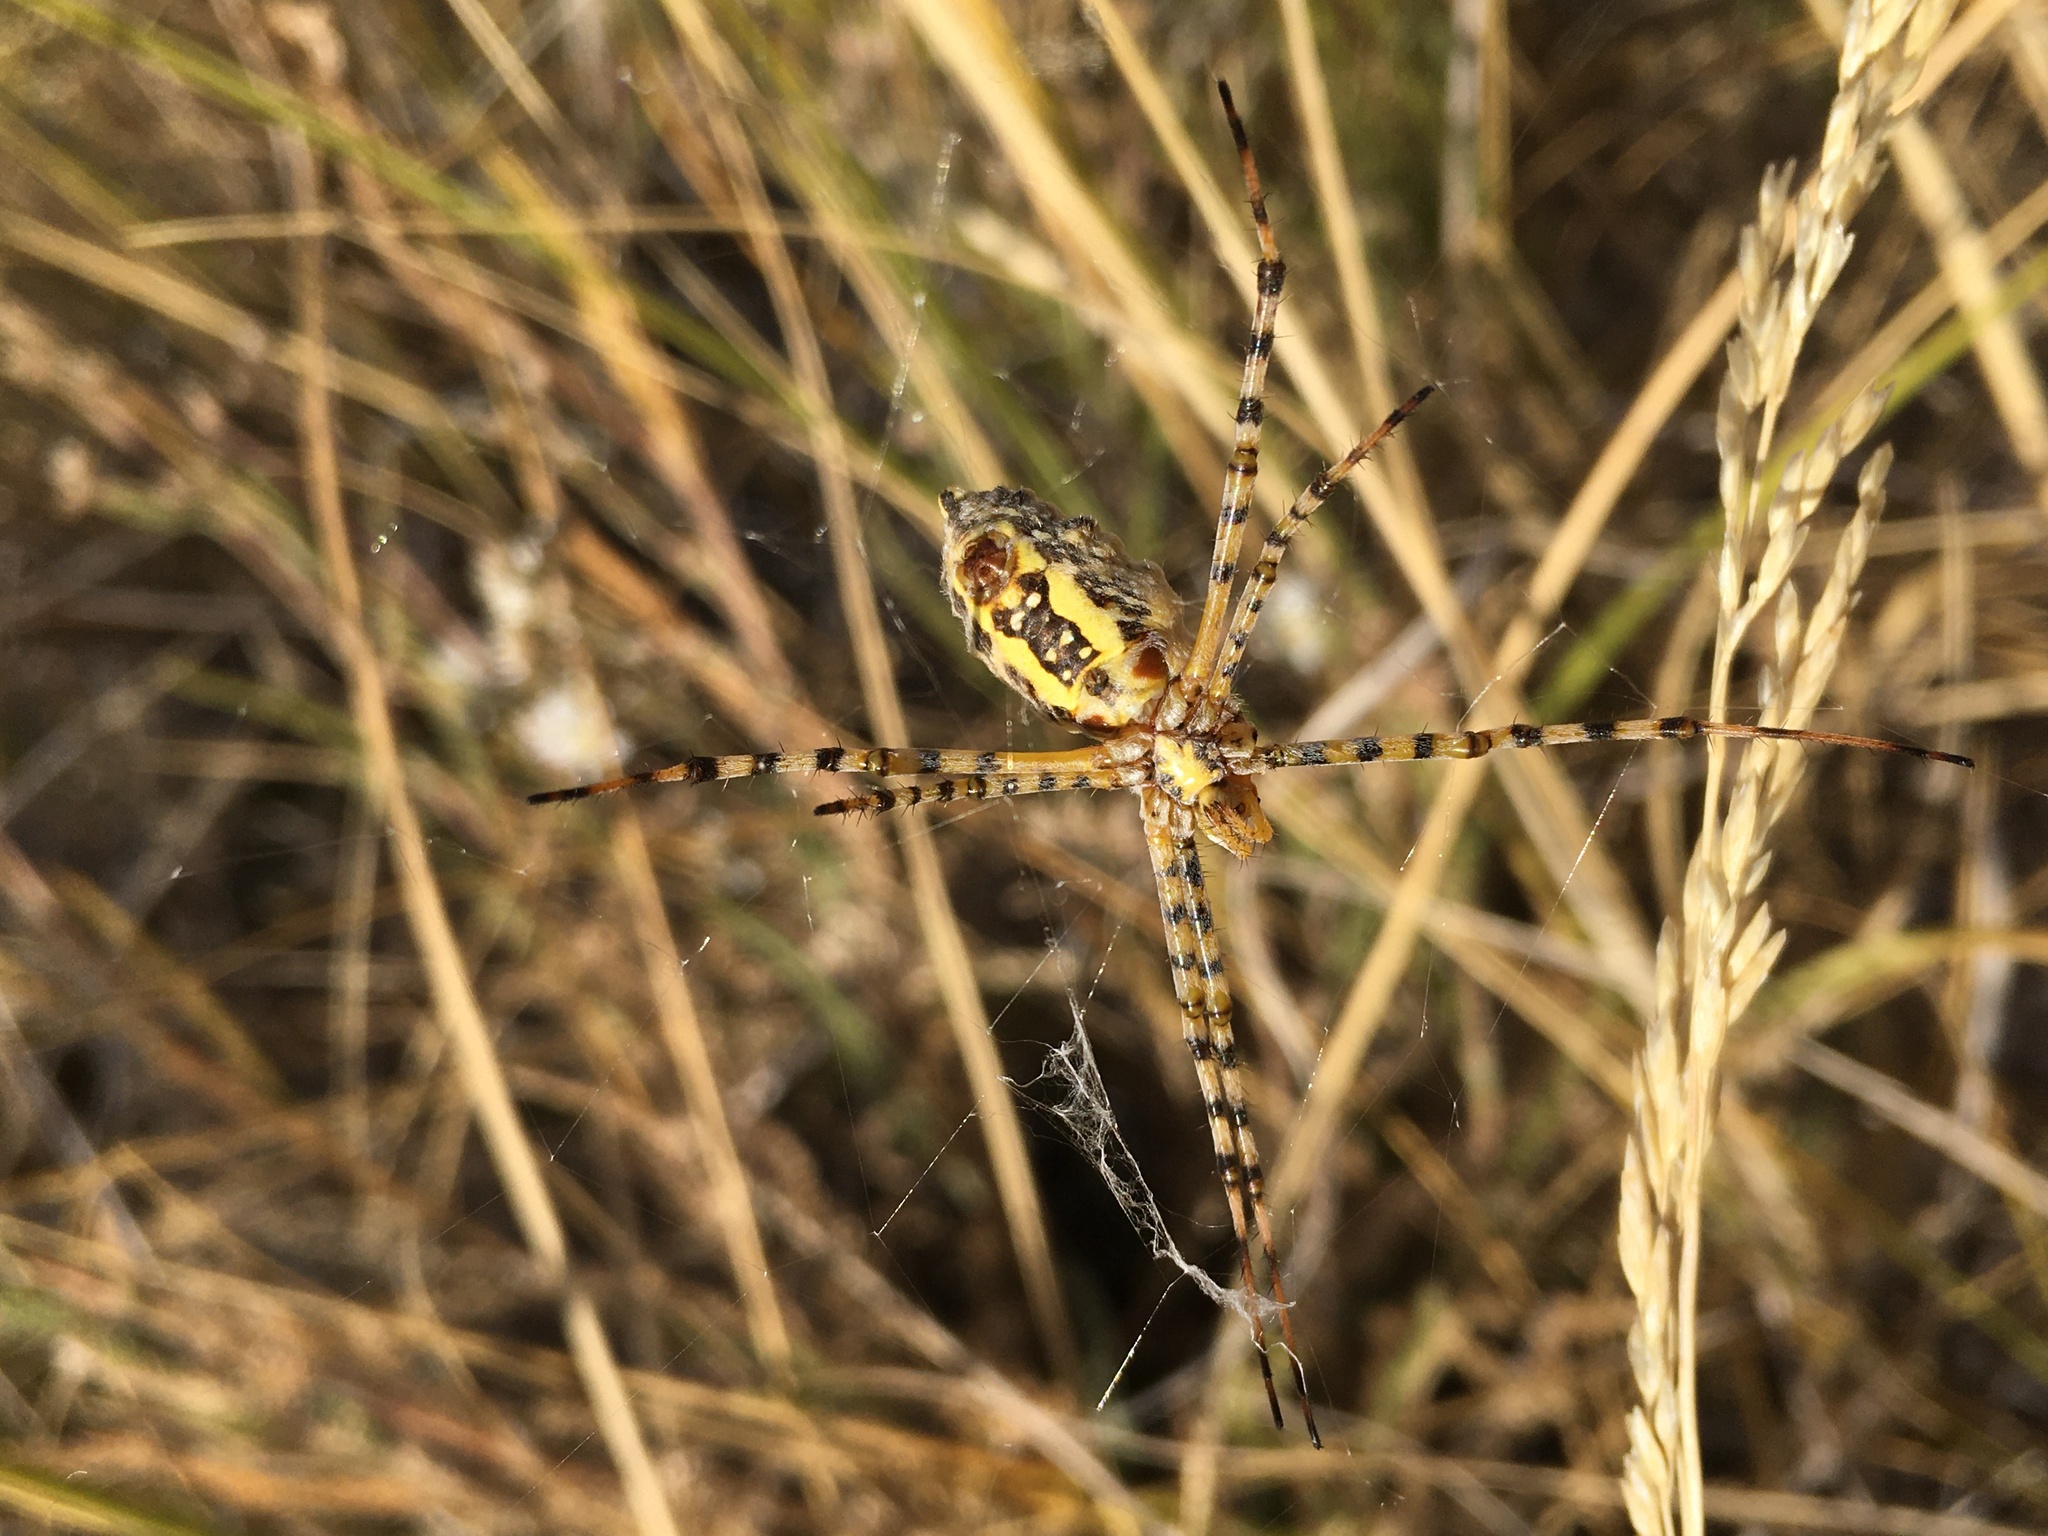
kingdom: Animalia
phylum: Arthropoda
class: Arachnida
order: Araneae
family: Araneidae
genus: Argiope
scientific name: Argiope trifasciata
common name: Banded garden spider
